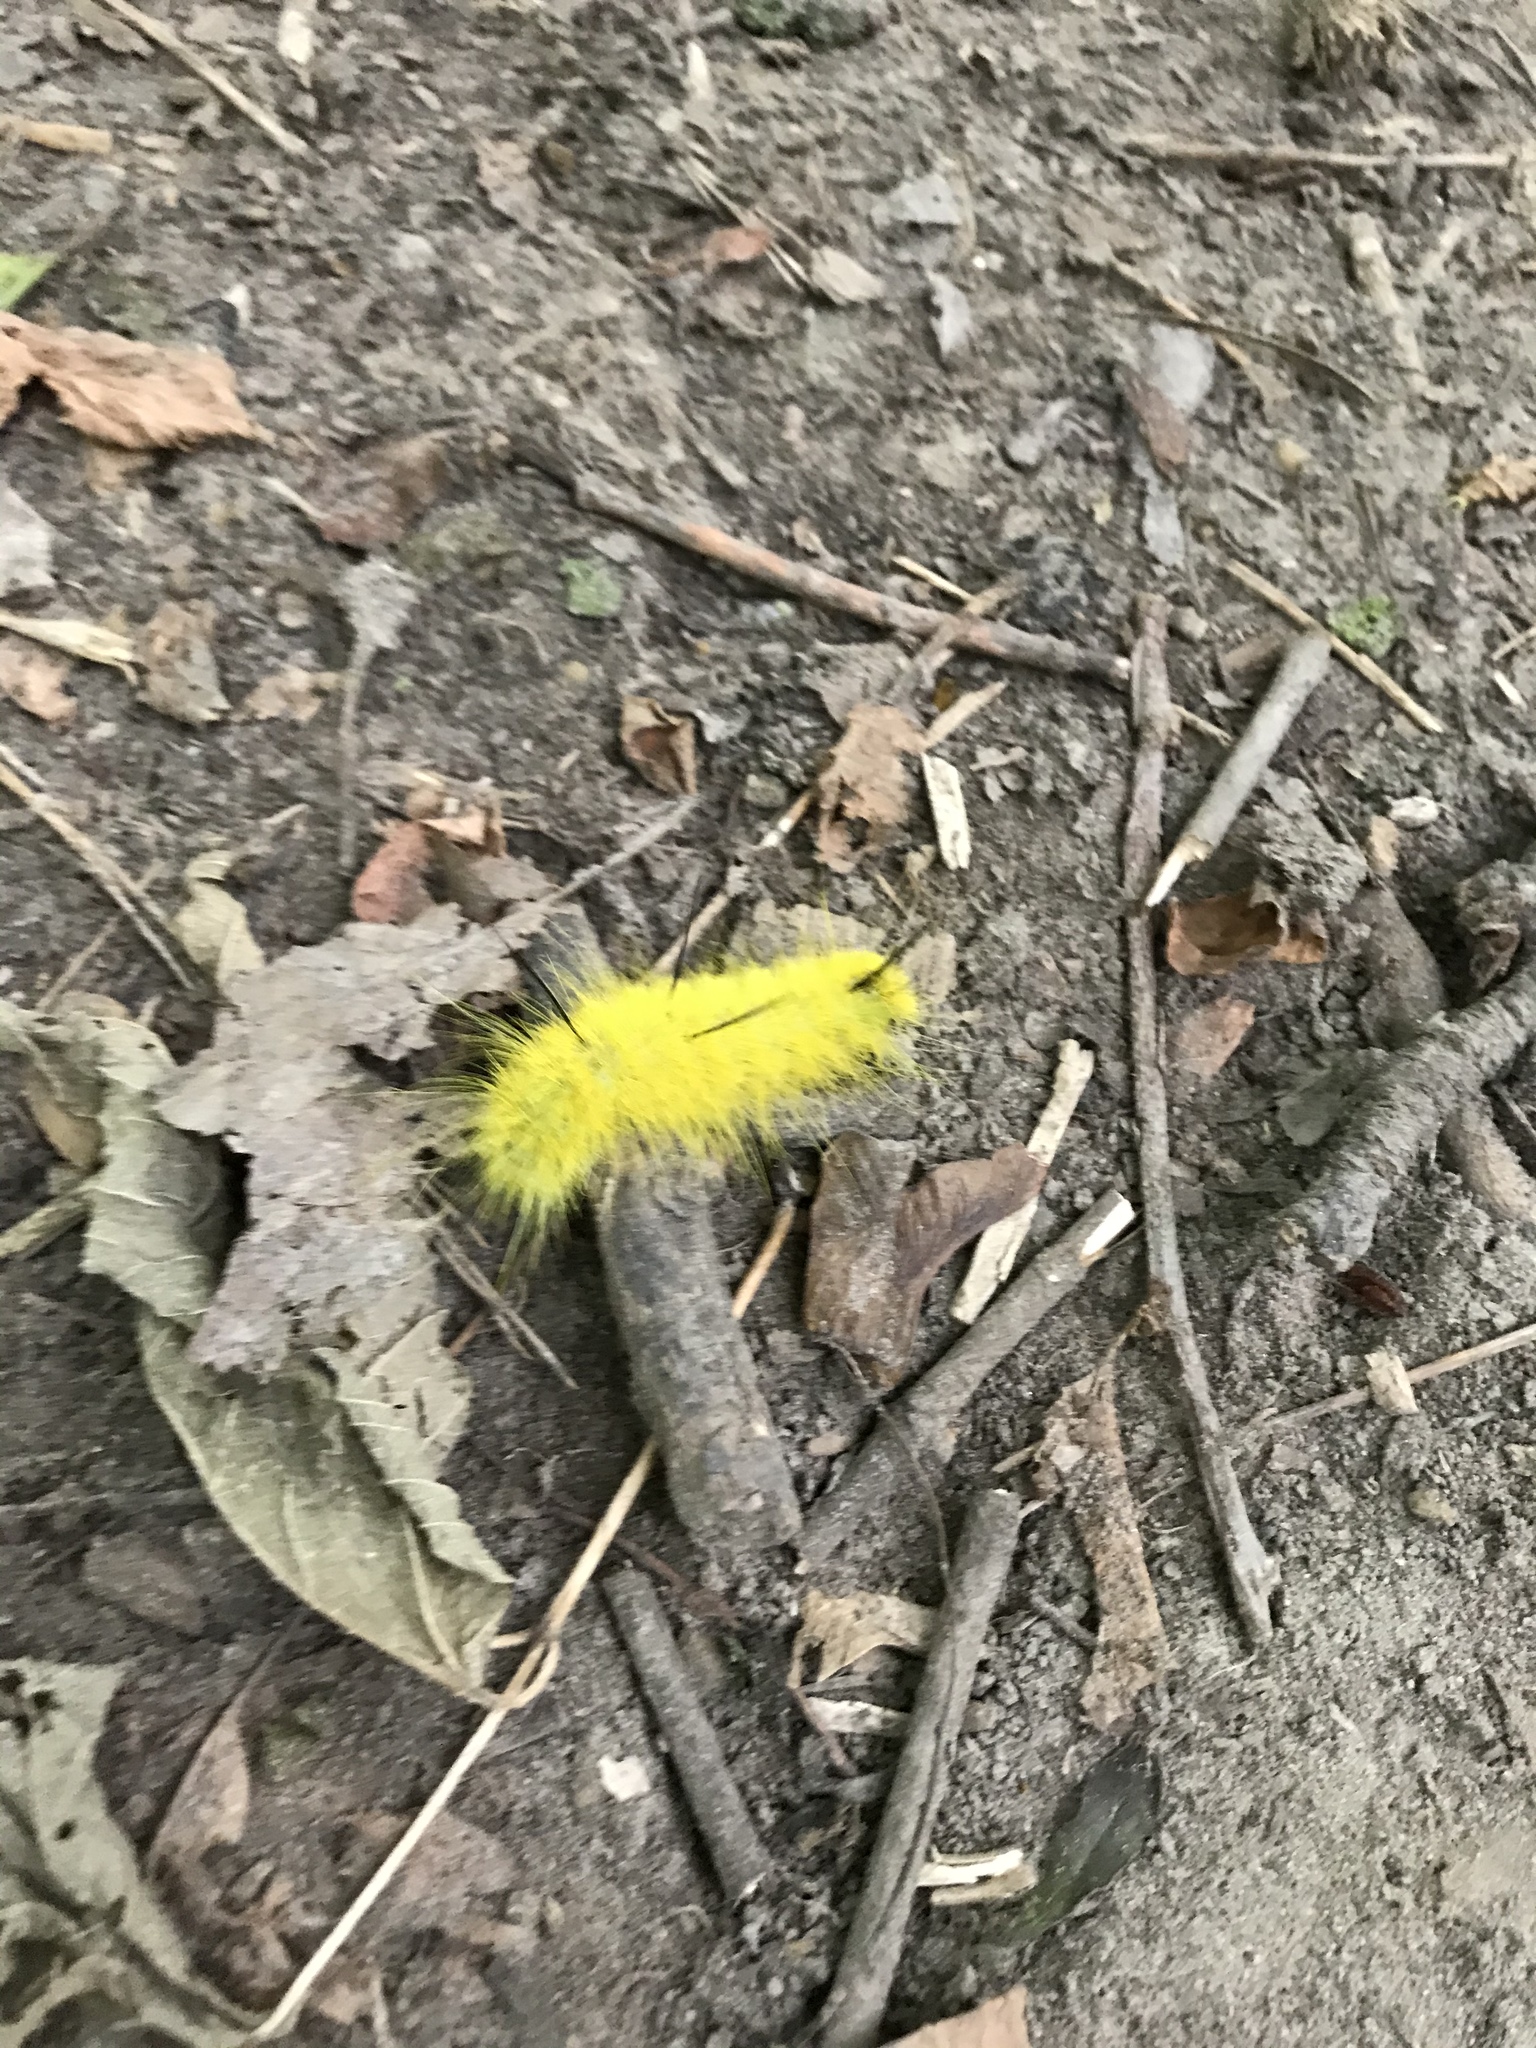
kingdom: Animalia
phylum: Arthropoda
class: Insecta
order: Lepidoptera
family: Noctuidae
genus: Acronicta
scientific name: Acronicta americana
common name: American dagger
